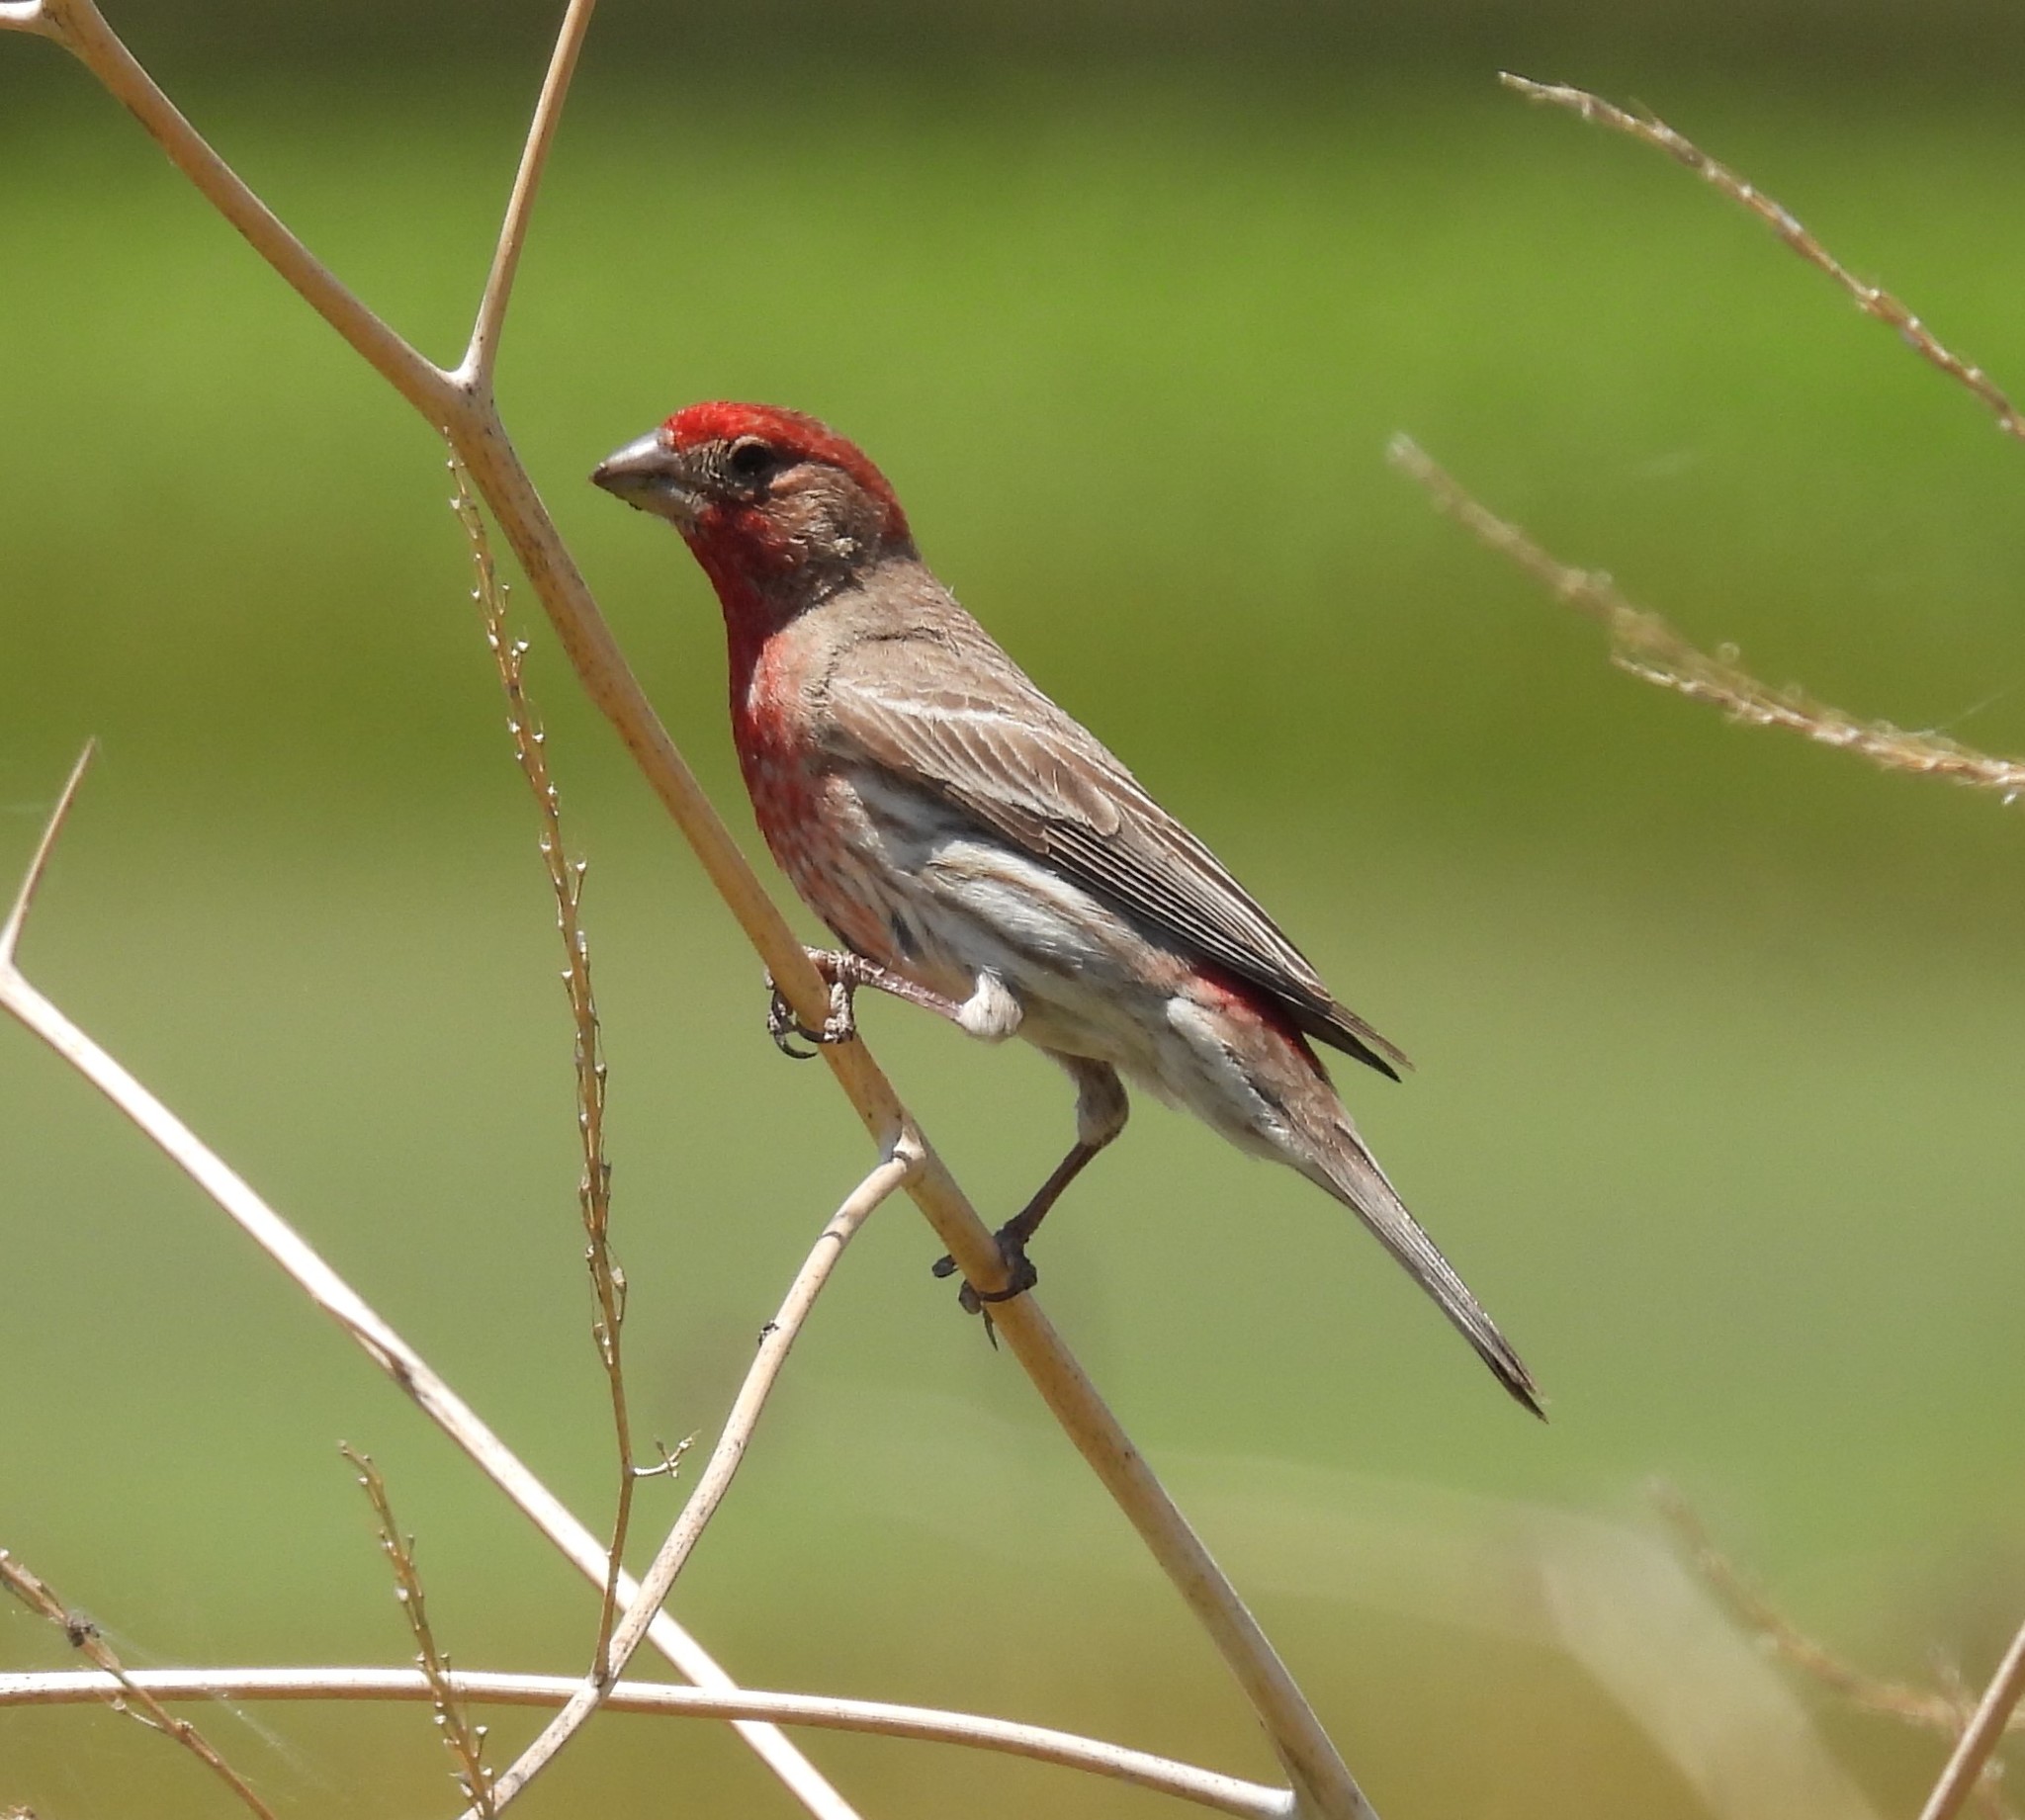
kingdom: Animalia
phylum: Chordata
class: Aves
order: Passeriformes
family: Fringillidae
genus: Haemorhous
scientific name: Haemorhous mexicanus
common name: House finch
